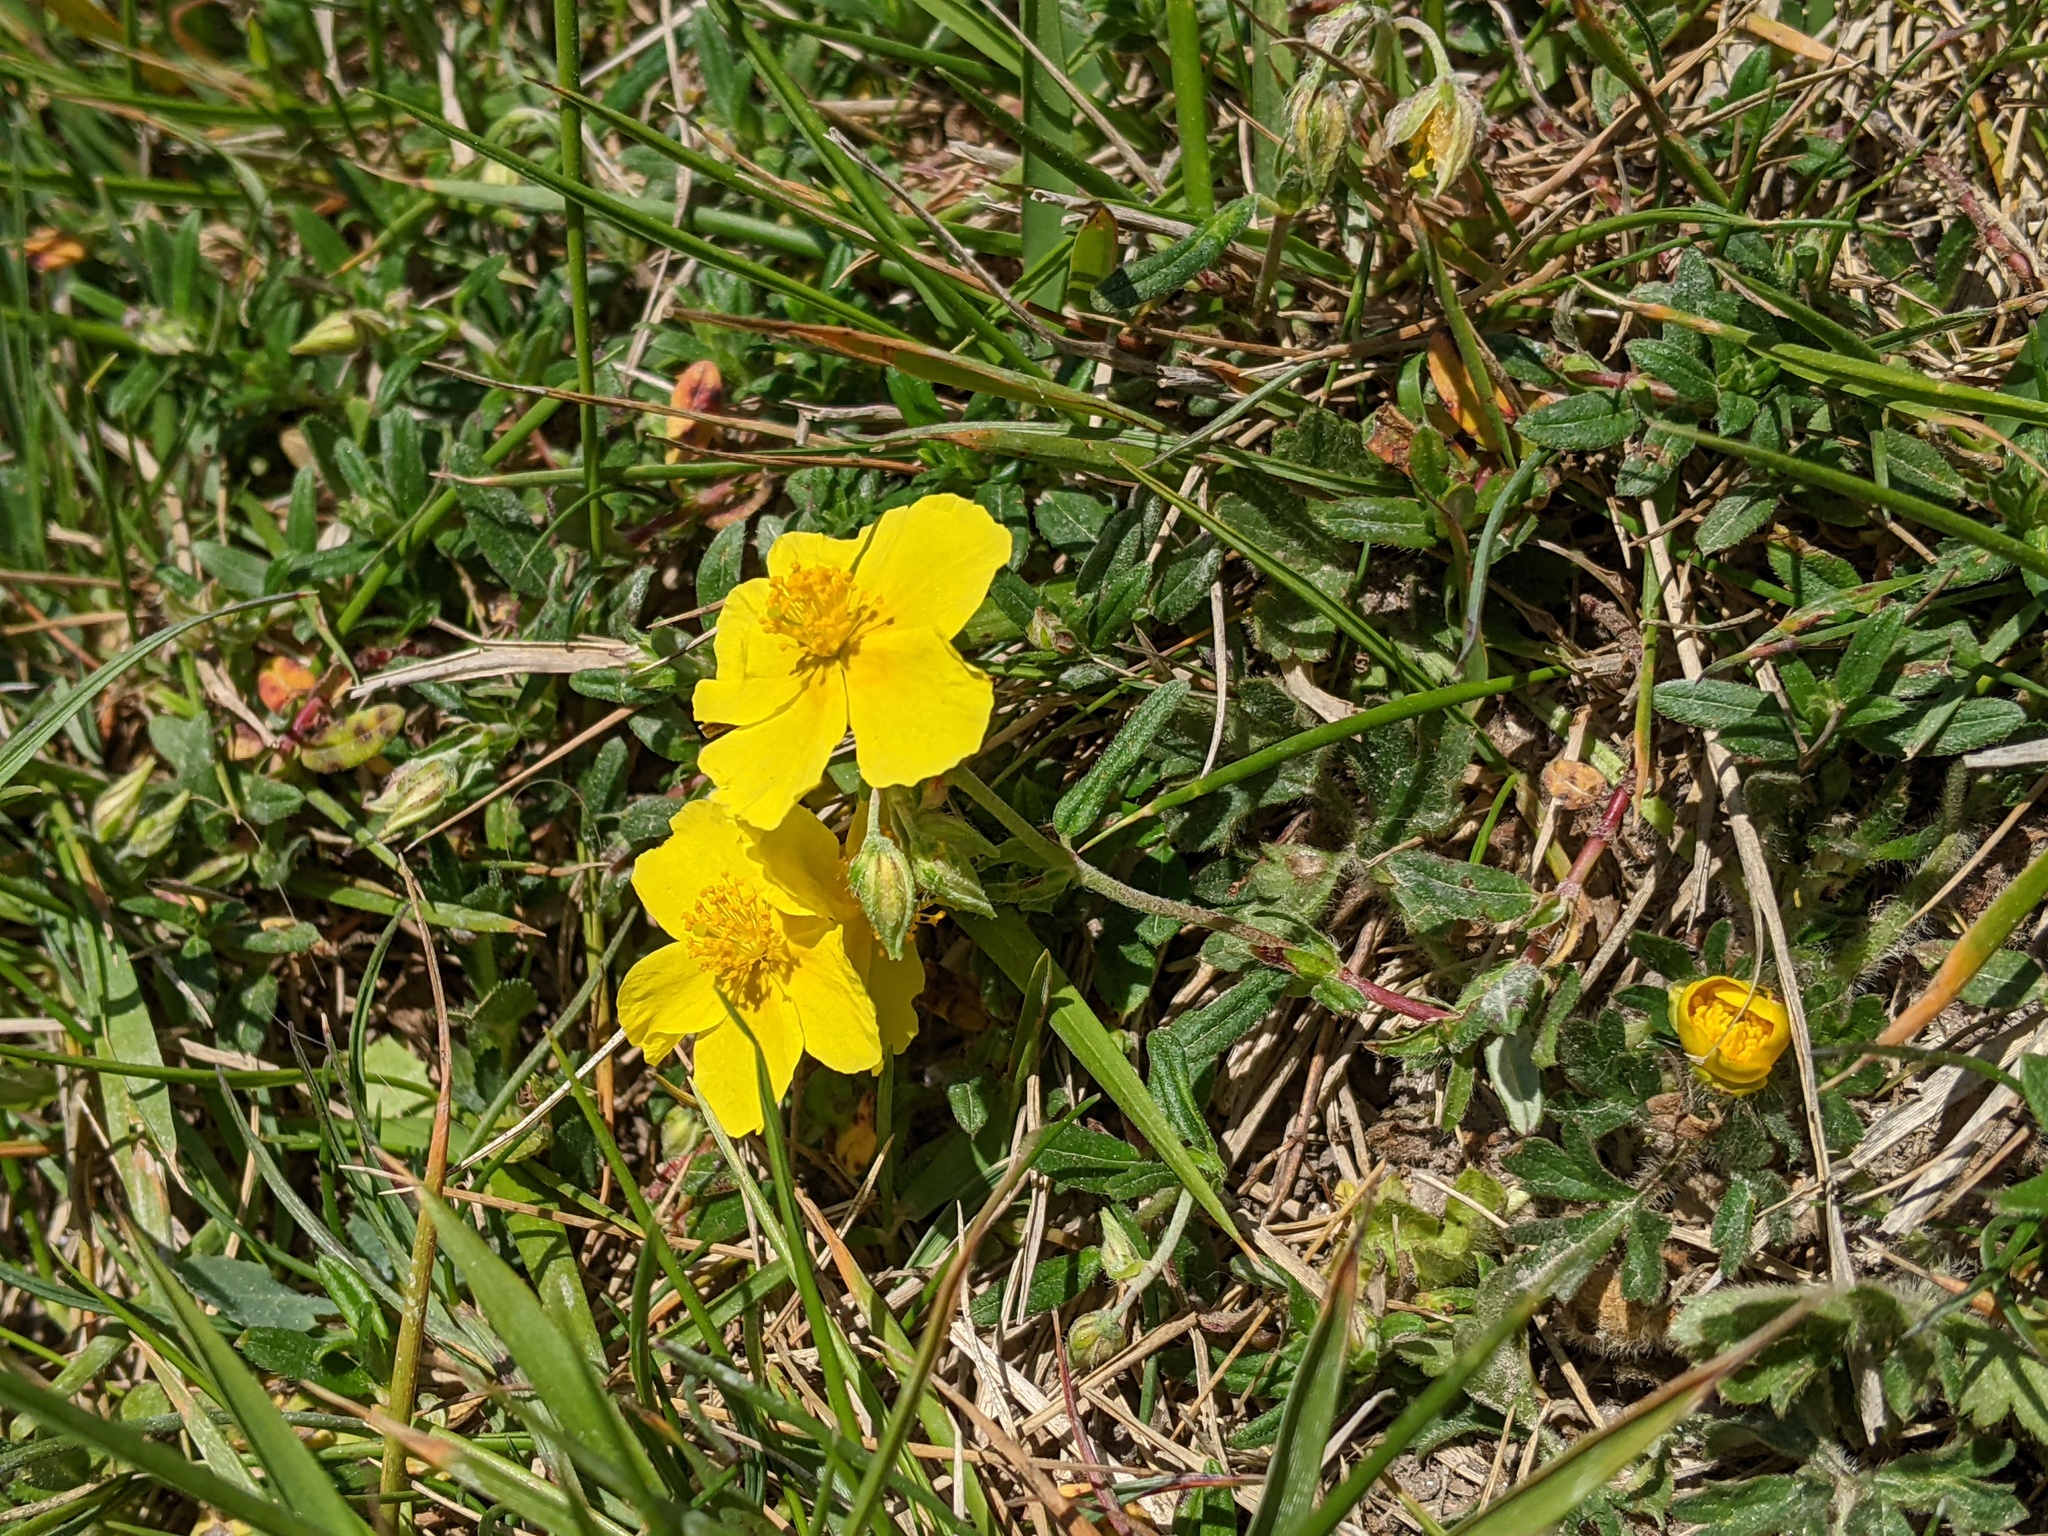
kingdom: Plantae
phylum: Tracheophyta
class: Magnoliopsida
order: Malvales
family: Cistaceae
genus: Helianthemum
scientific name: Helianthemum nummularium
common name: Common rock-rose
